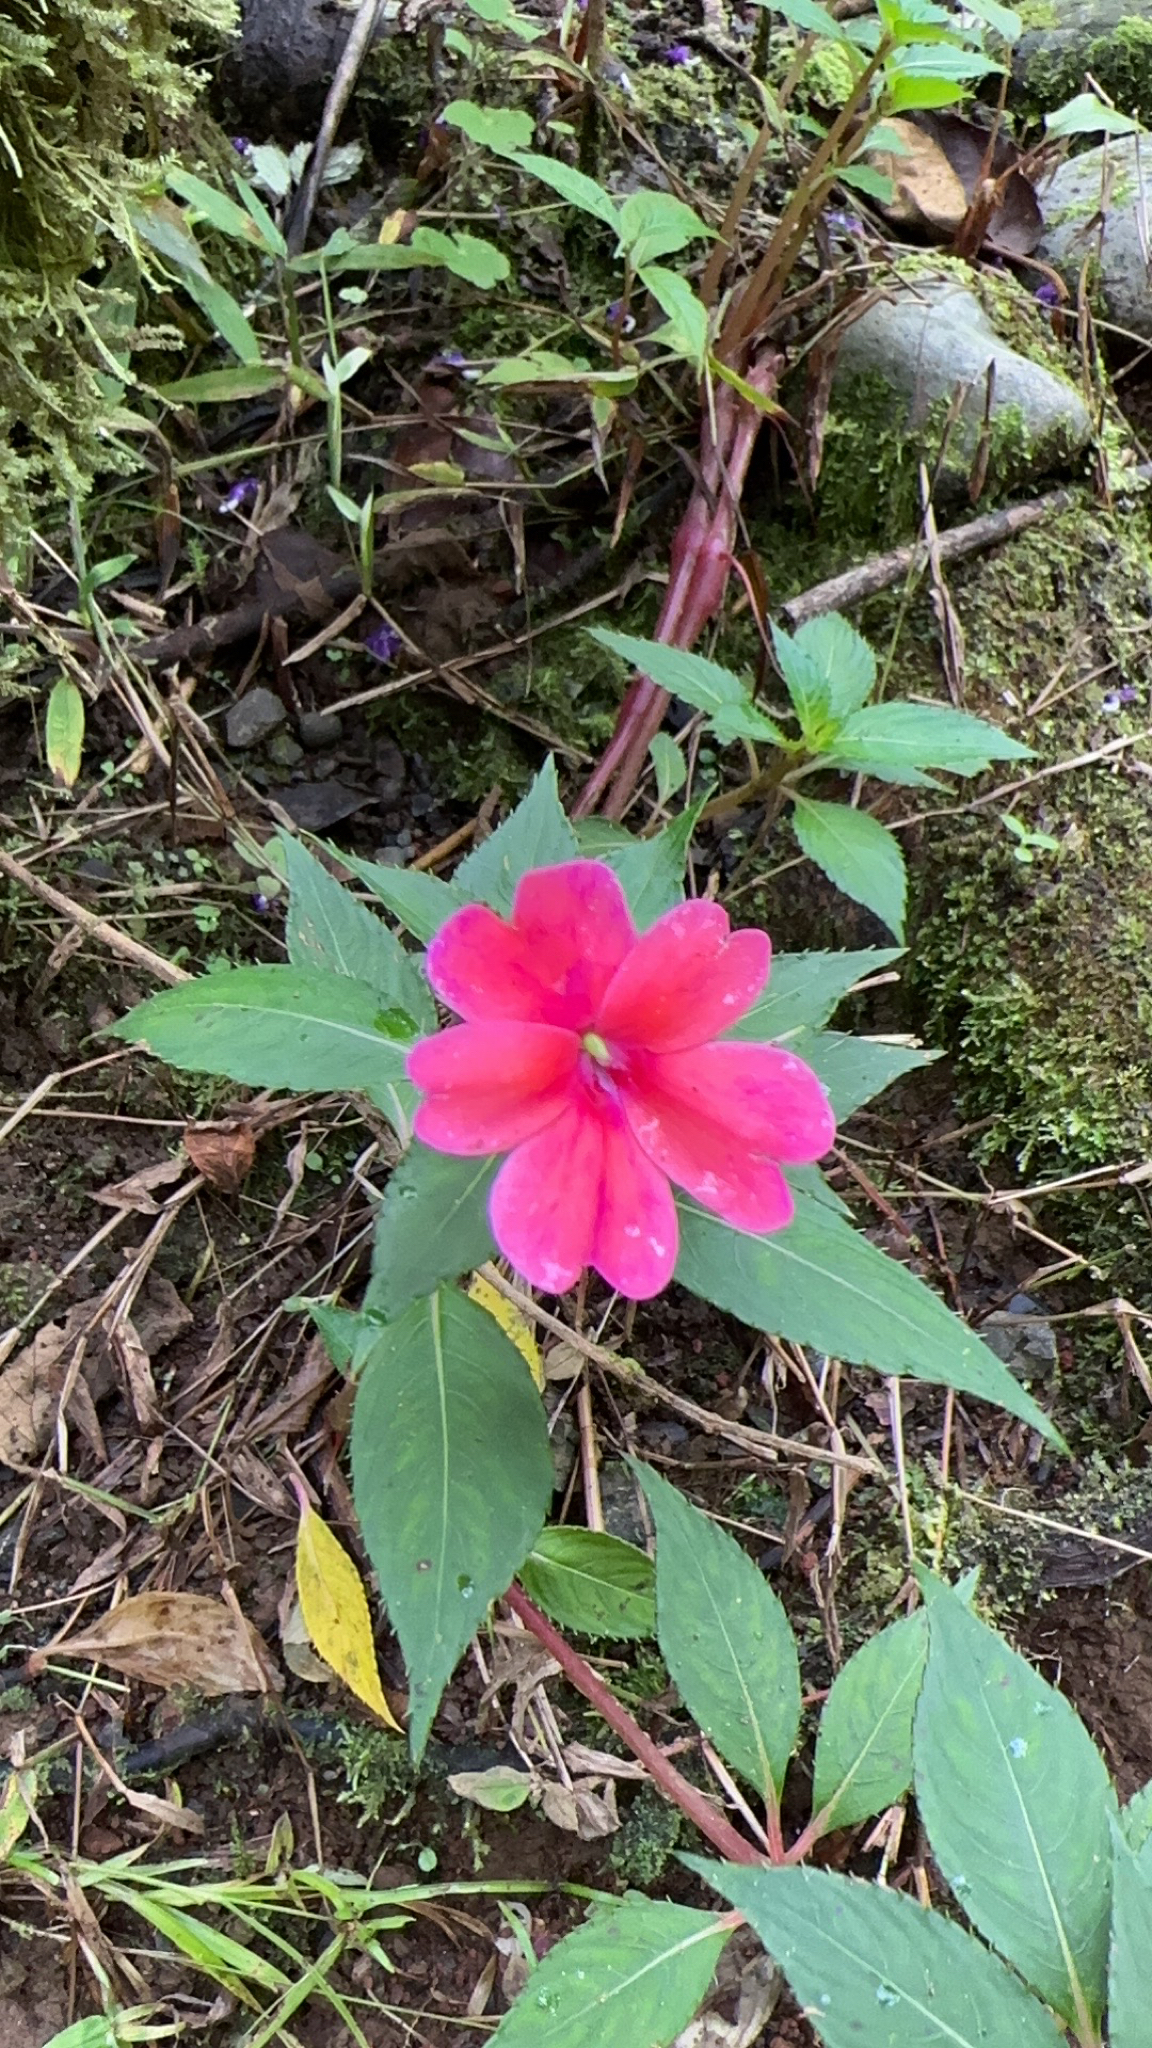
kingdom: Plantae
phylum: Tracheophyta
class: Magnoliopsida
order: Ericales
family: Balsaminaceae
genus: Impatiens
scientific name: Impatiens hawkeri
